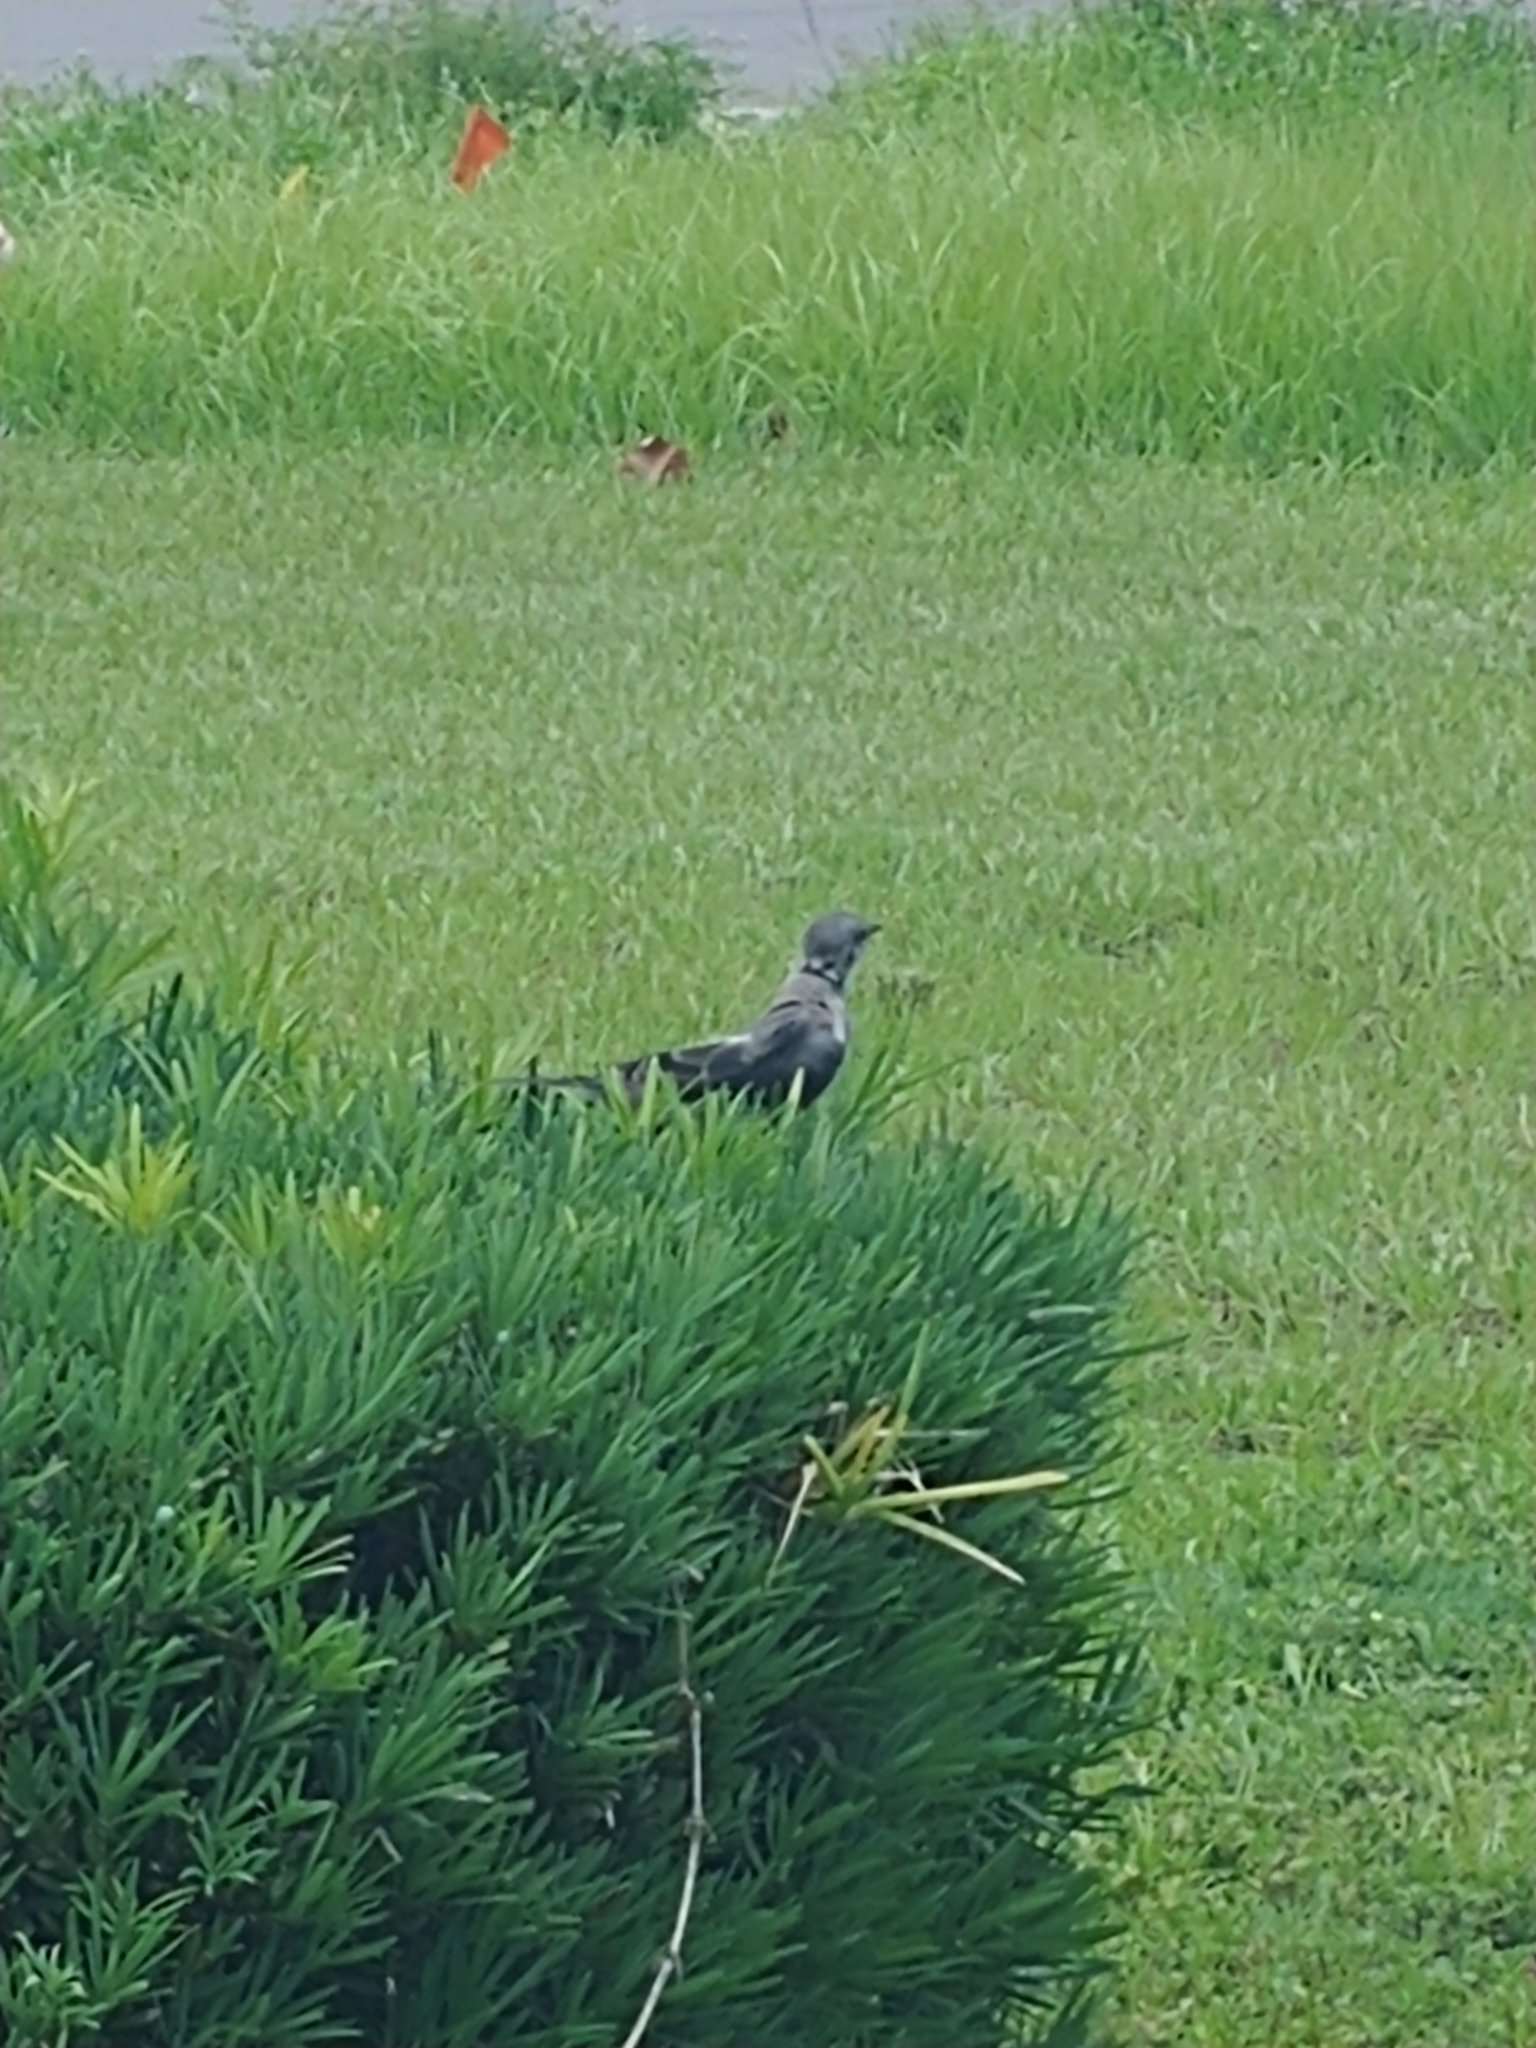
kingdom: Animalia
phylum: Chordata
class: Aves
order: Passeriformes
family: Mimidae
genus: Mimus
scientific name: Mimus polyglottos
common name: Northern mockingbird
